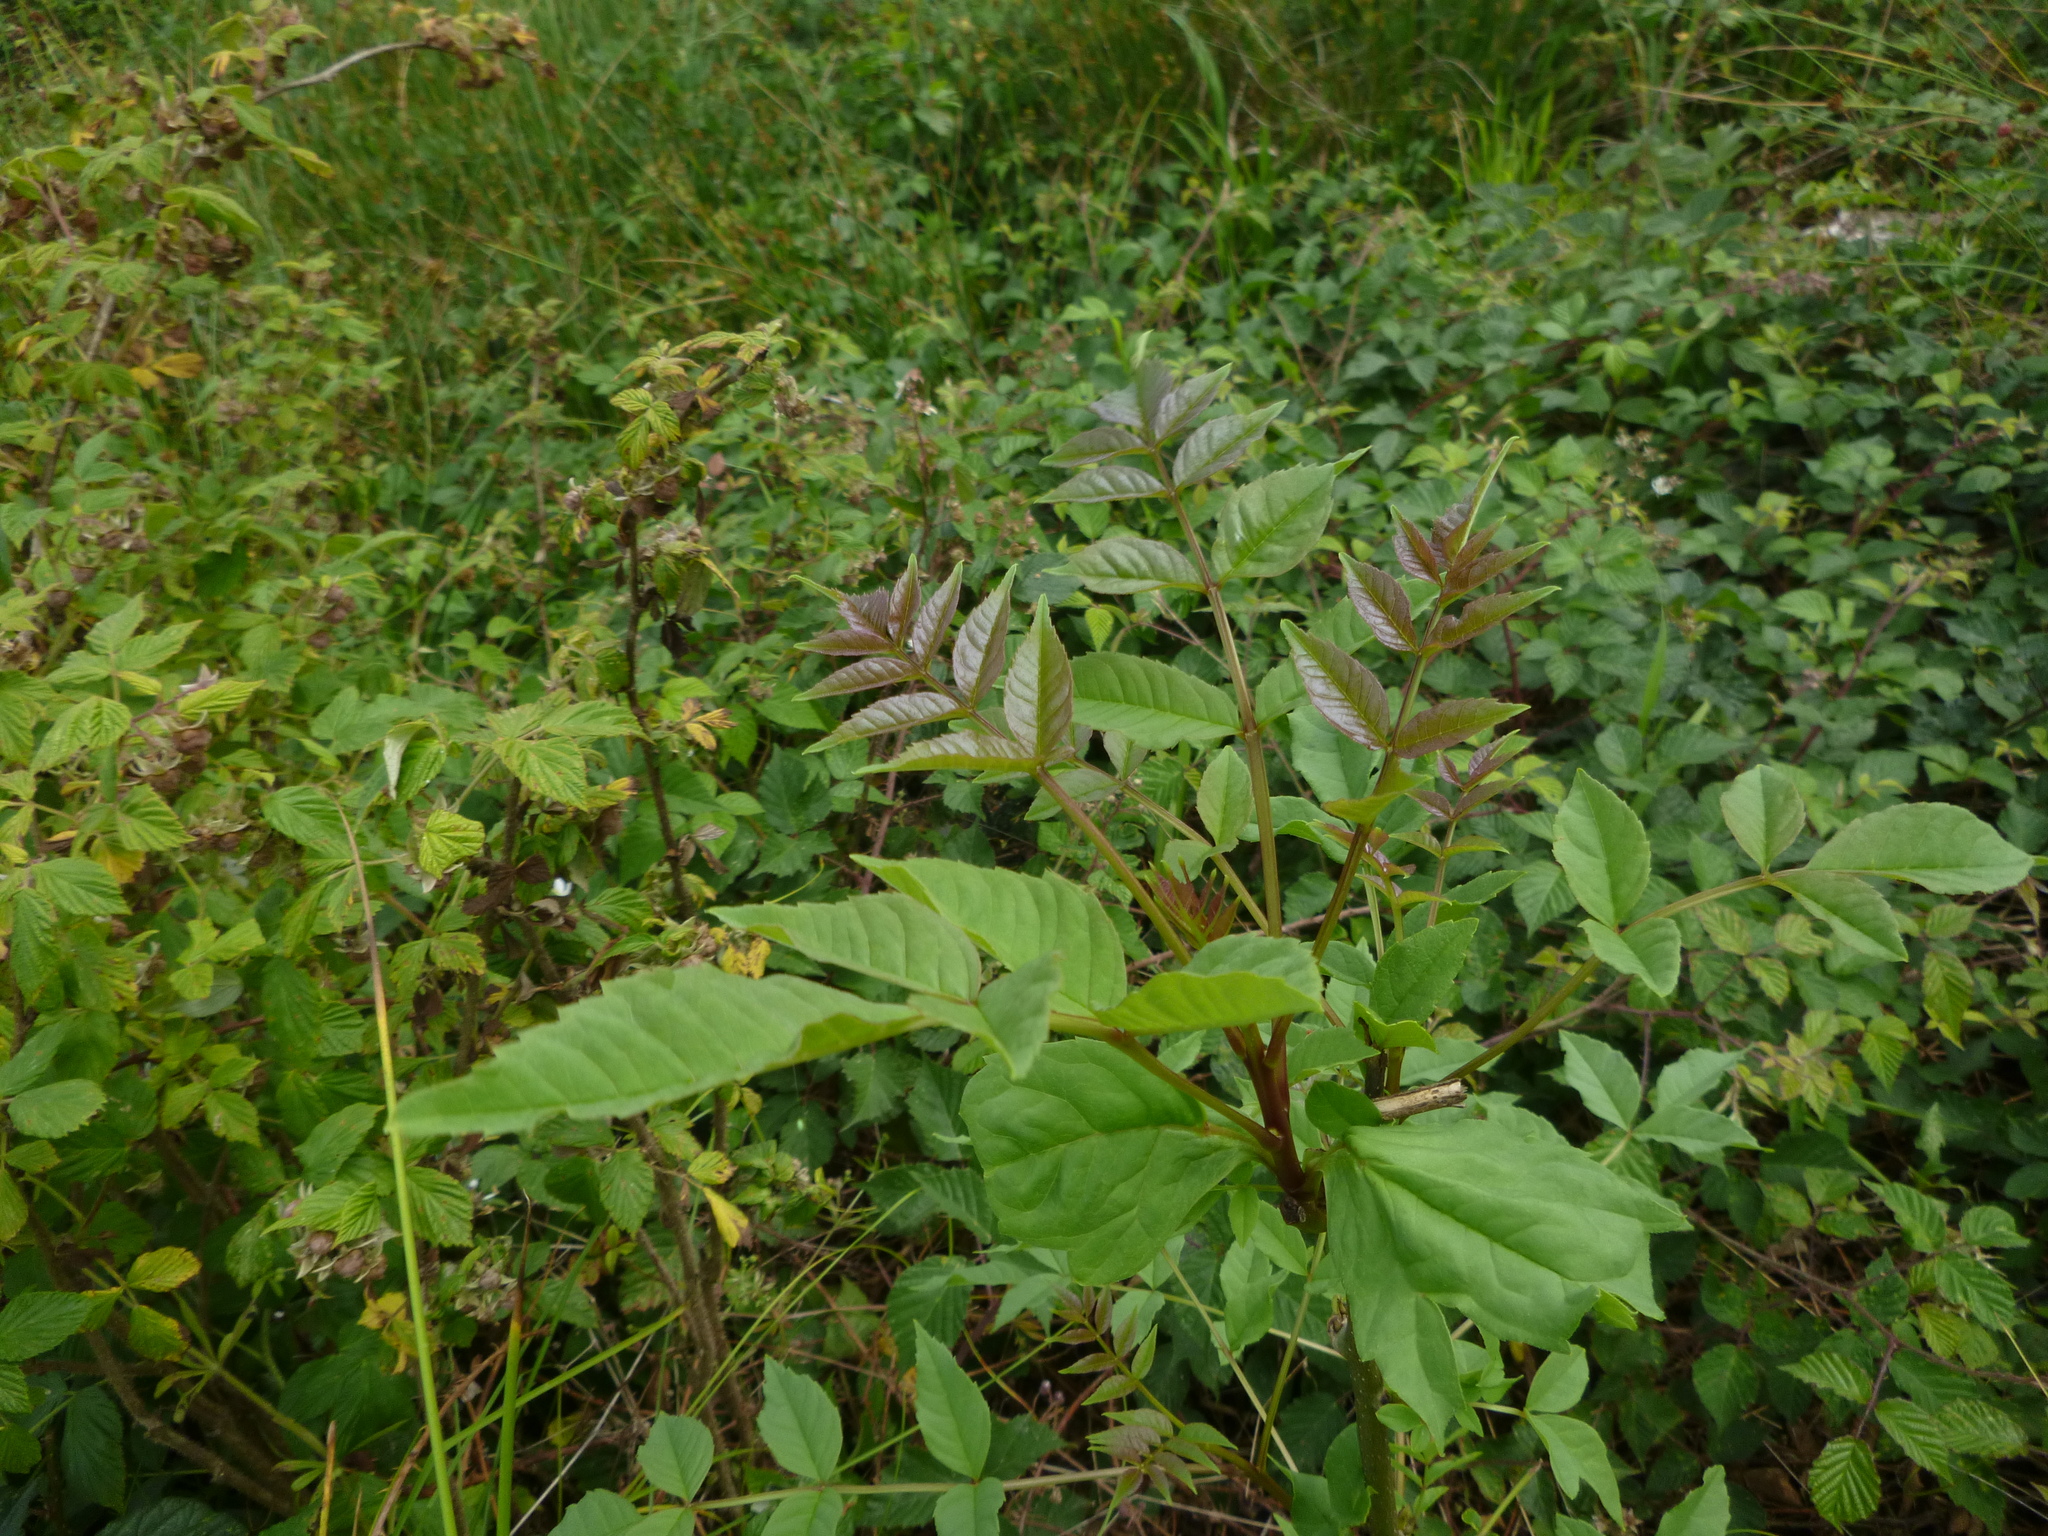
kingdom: Plantae
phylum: Tracheophyta
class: Magnoliopsida
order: Lamiales
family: Oleaceae
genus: Fraxinus
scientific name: Fraxinus excelsior
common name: European ash
